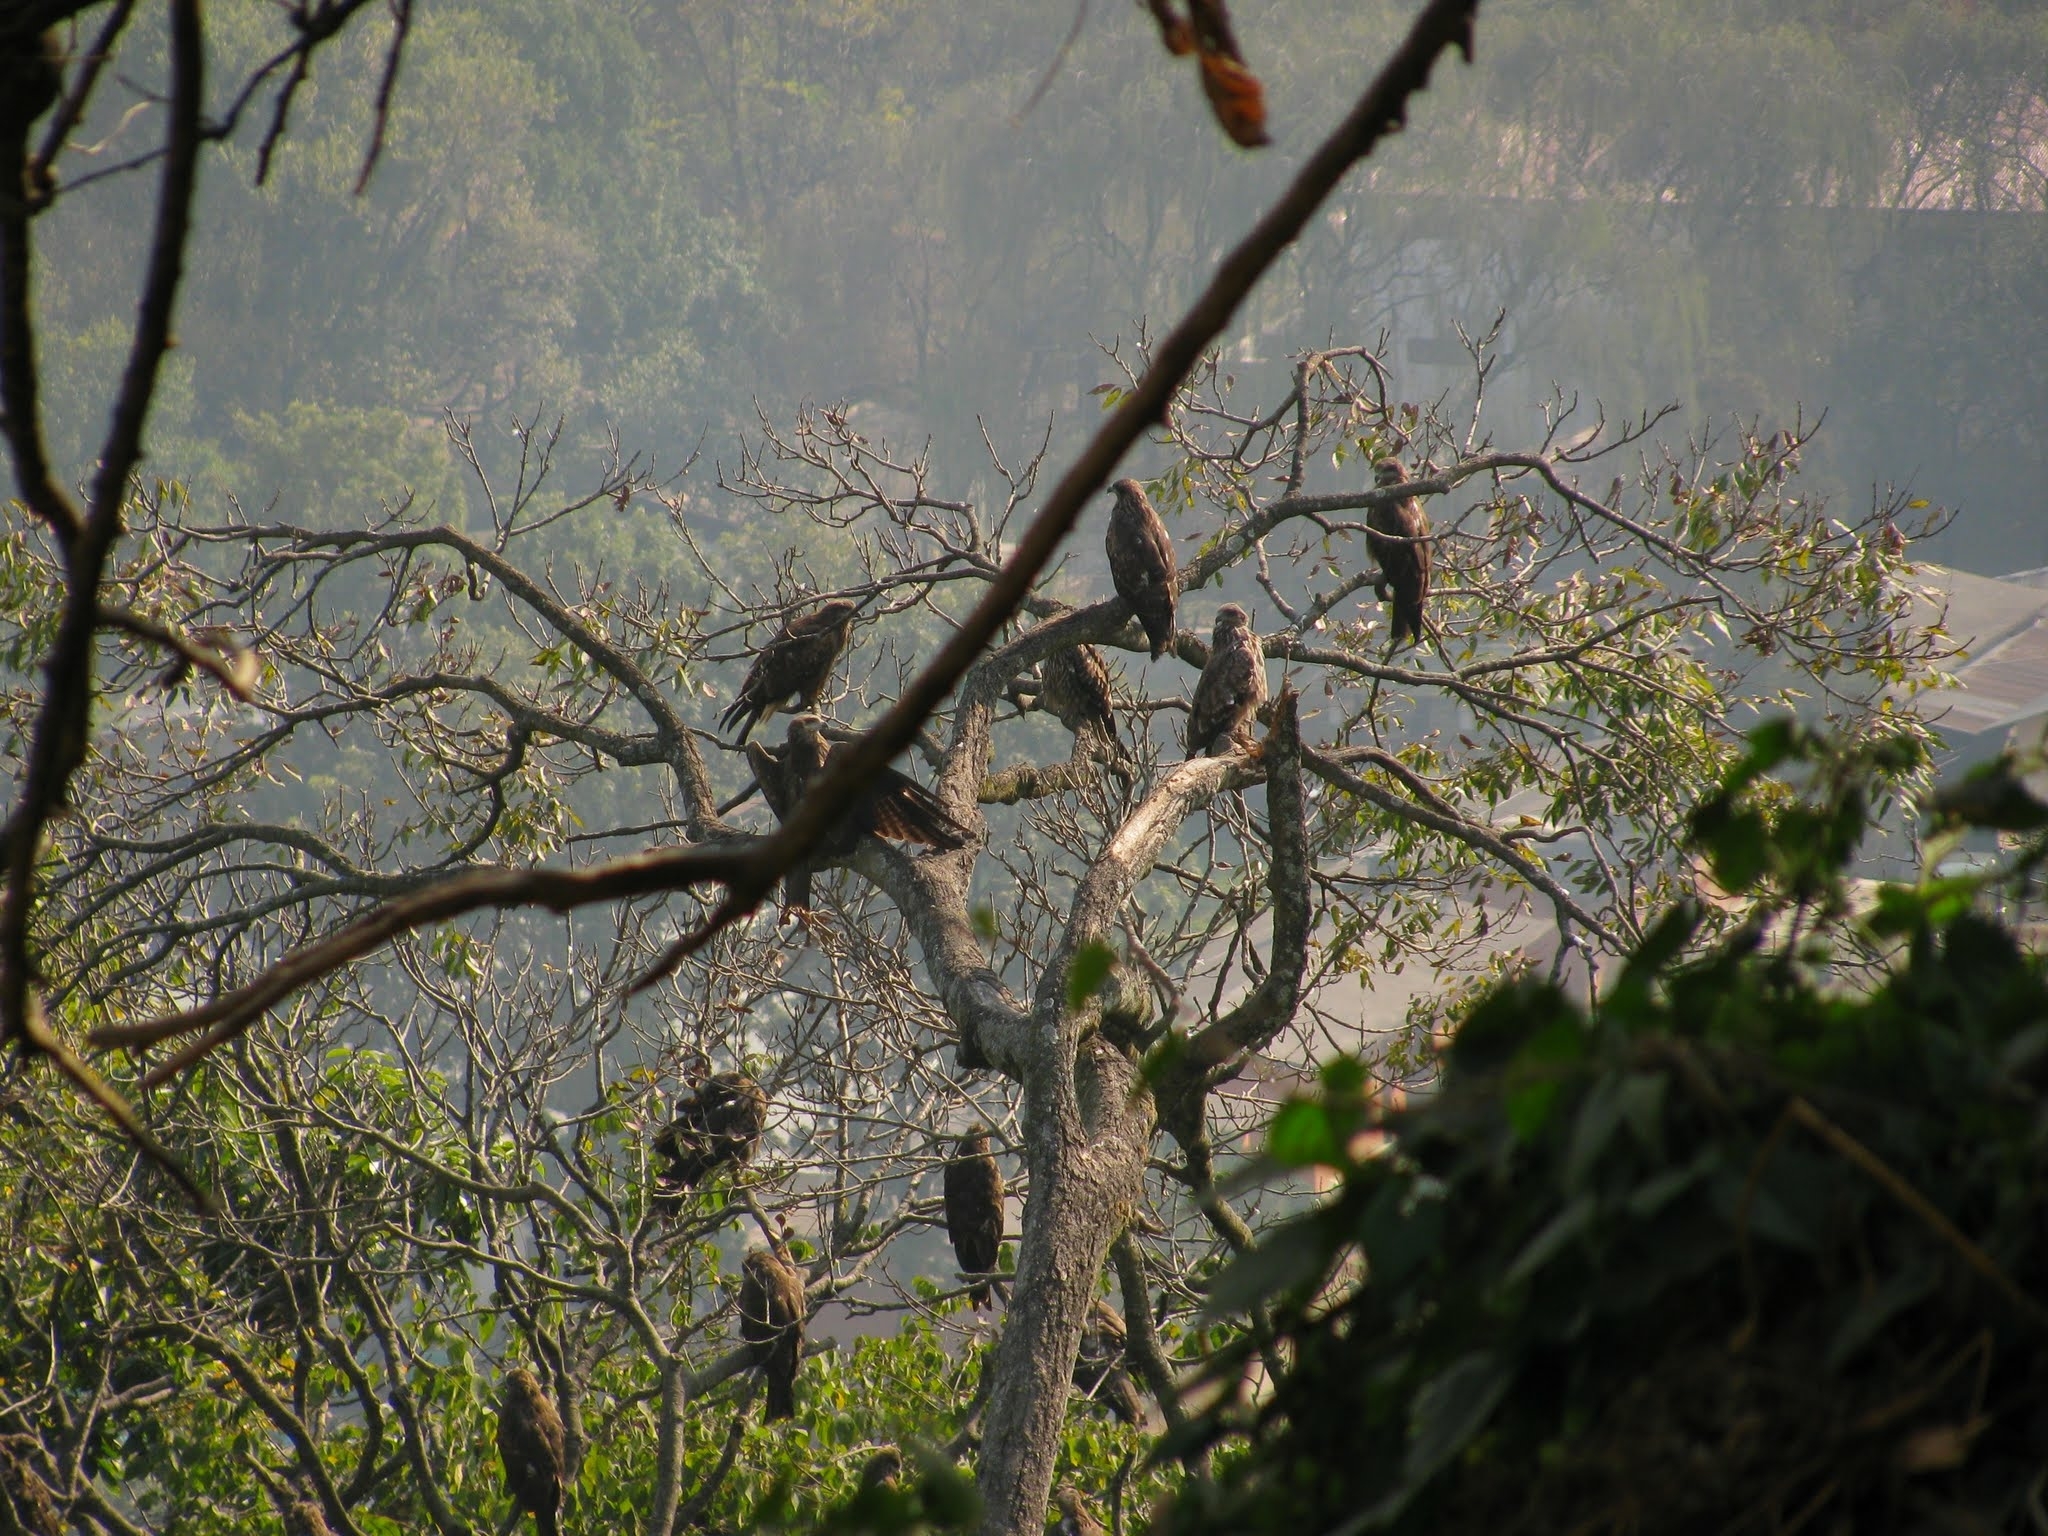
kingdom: Animalia
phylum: Chordata
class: Aves
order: Accipitriformes
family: Accipitridae
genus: Milvus
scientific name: Milvus migrans
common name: Black kite
